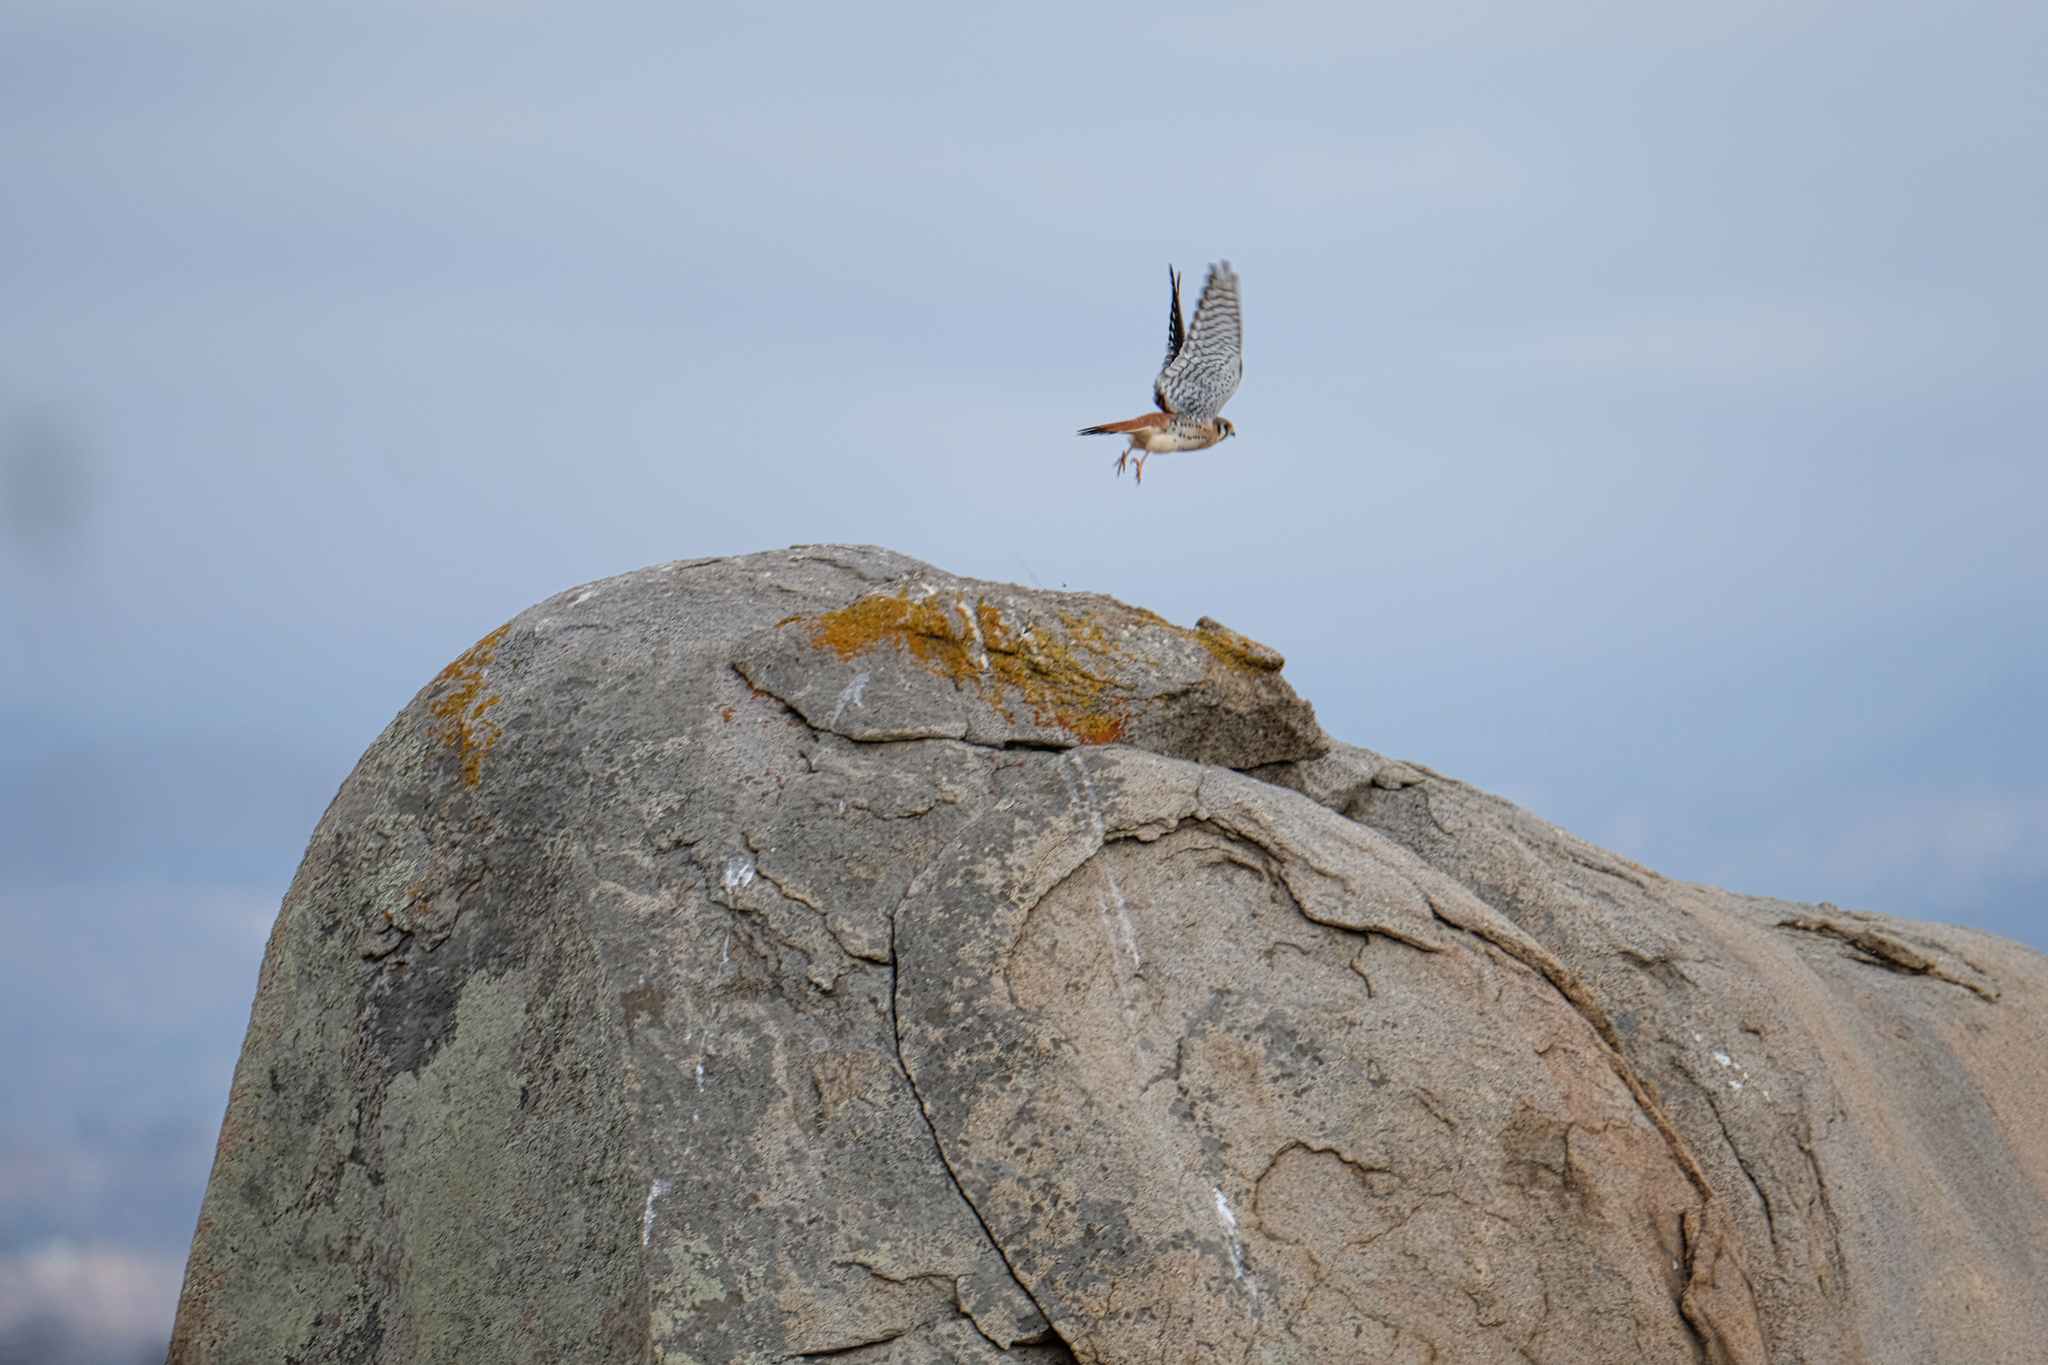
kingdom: Animalia
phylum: Chordata
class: Aves
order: Falconiformes
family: Falconidae
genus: Falco
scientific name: Falco sparverius
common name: American kestrel
